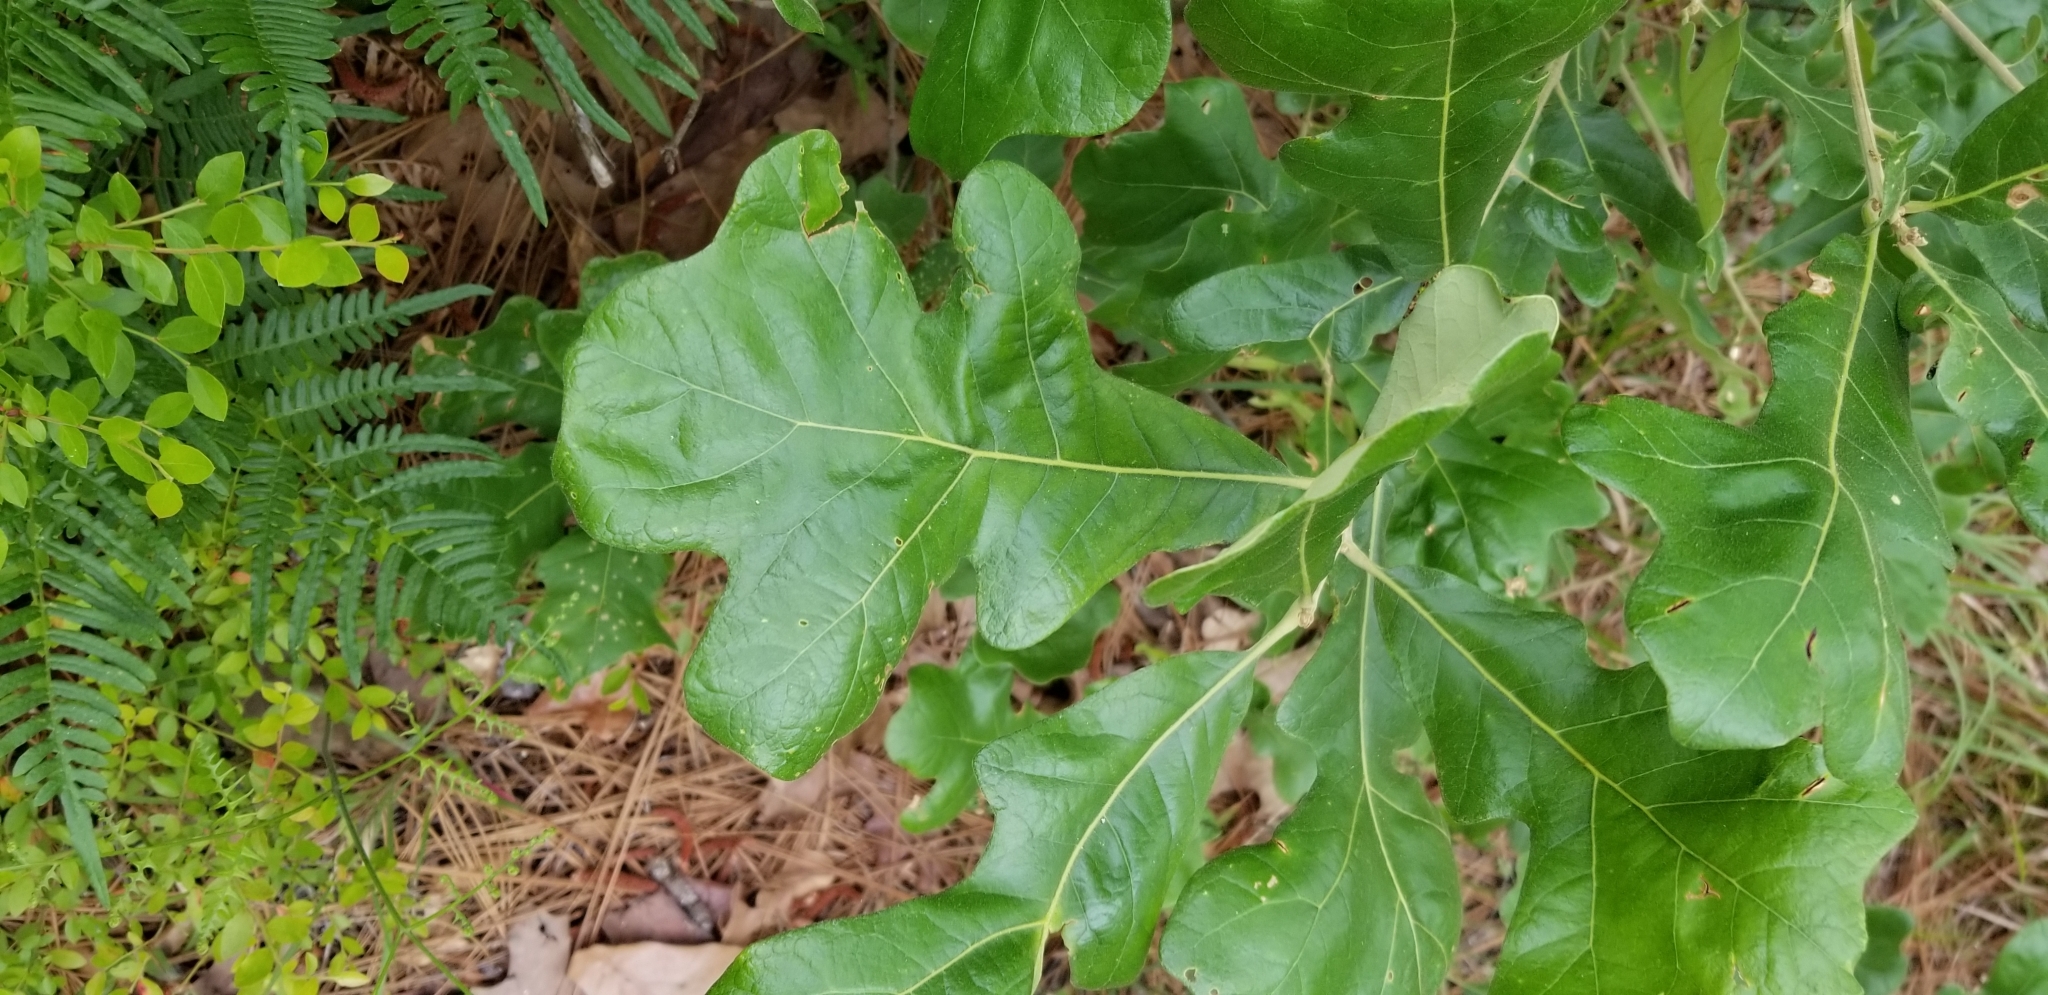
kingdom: Plantae
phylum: Tracheophyta
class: Magnoliopsida
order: Fagales
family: Fagaceae
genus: Quercus
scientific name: Quercus stellata
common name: Post oak
